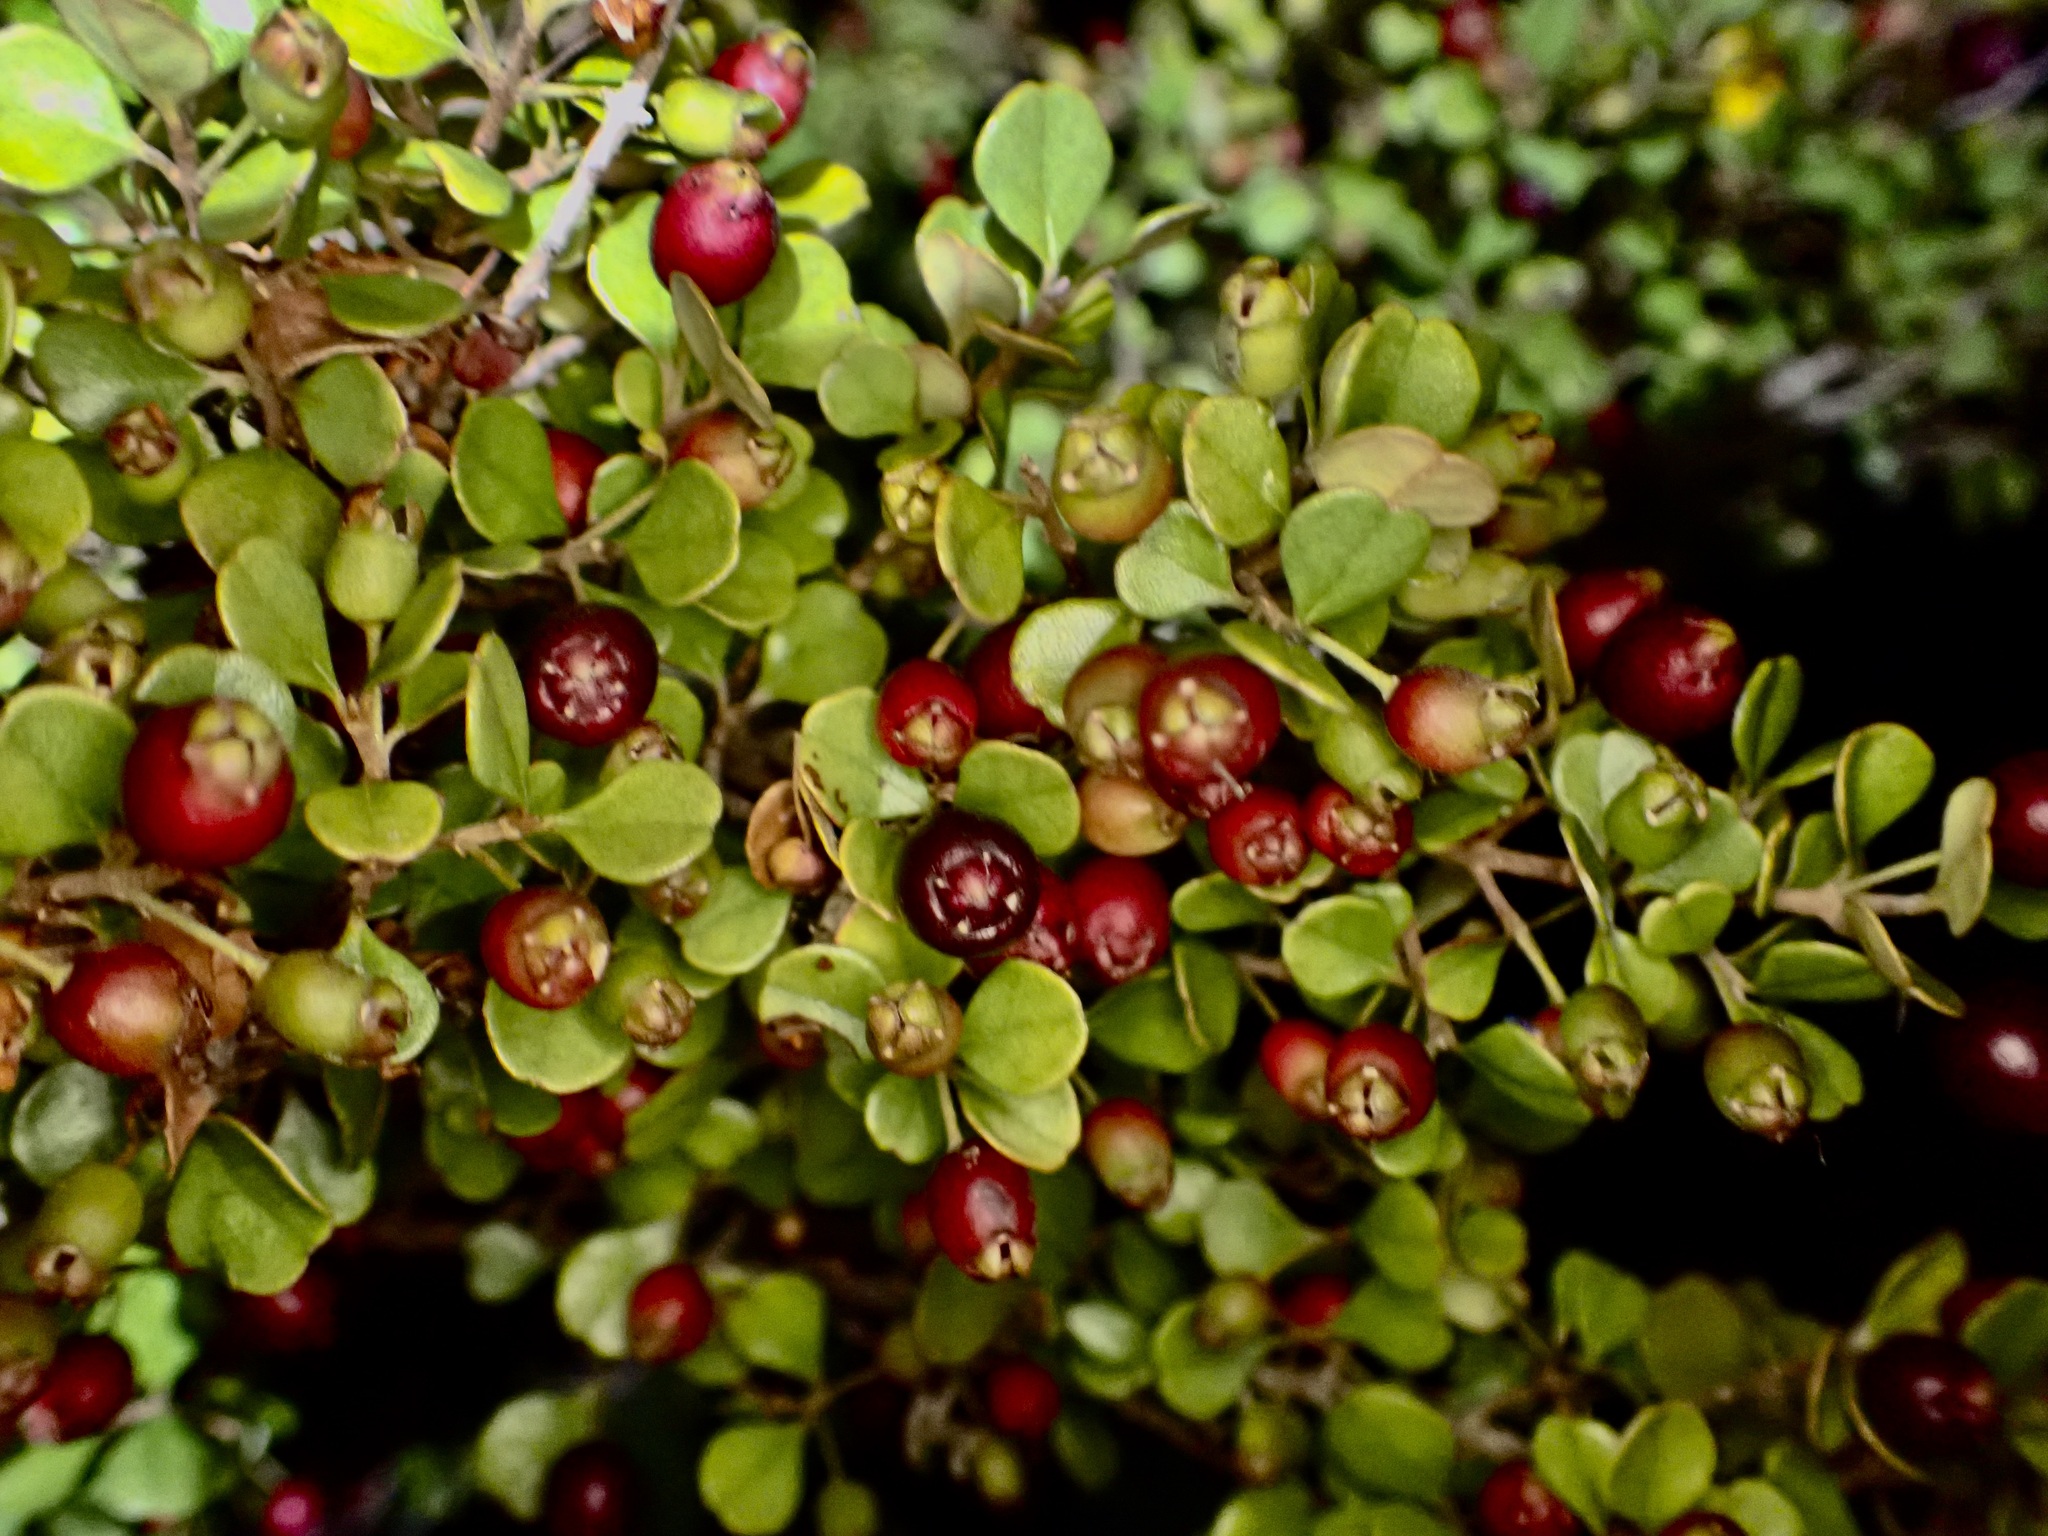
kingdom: Plantae
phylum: Tracheophyta
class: Magnoliopsida
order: Myrtales
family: Myrtaceae
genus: Lophomyrtus
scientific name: Lophomyrtus obcordata
